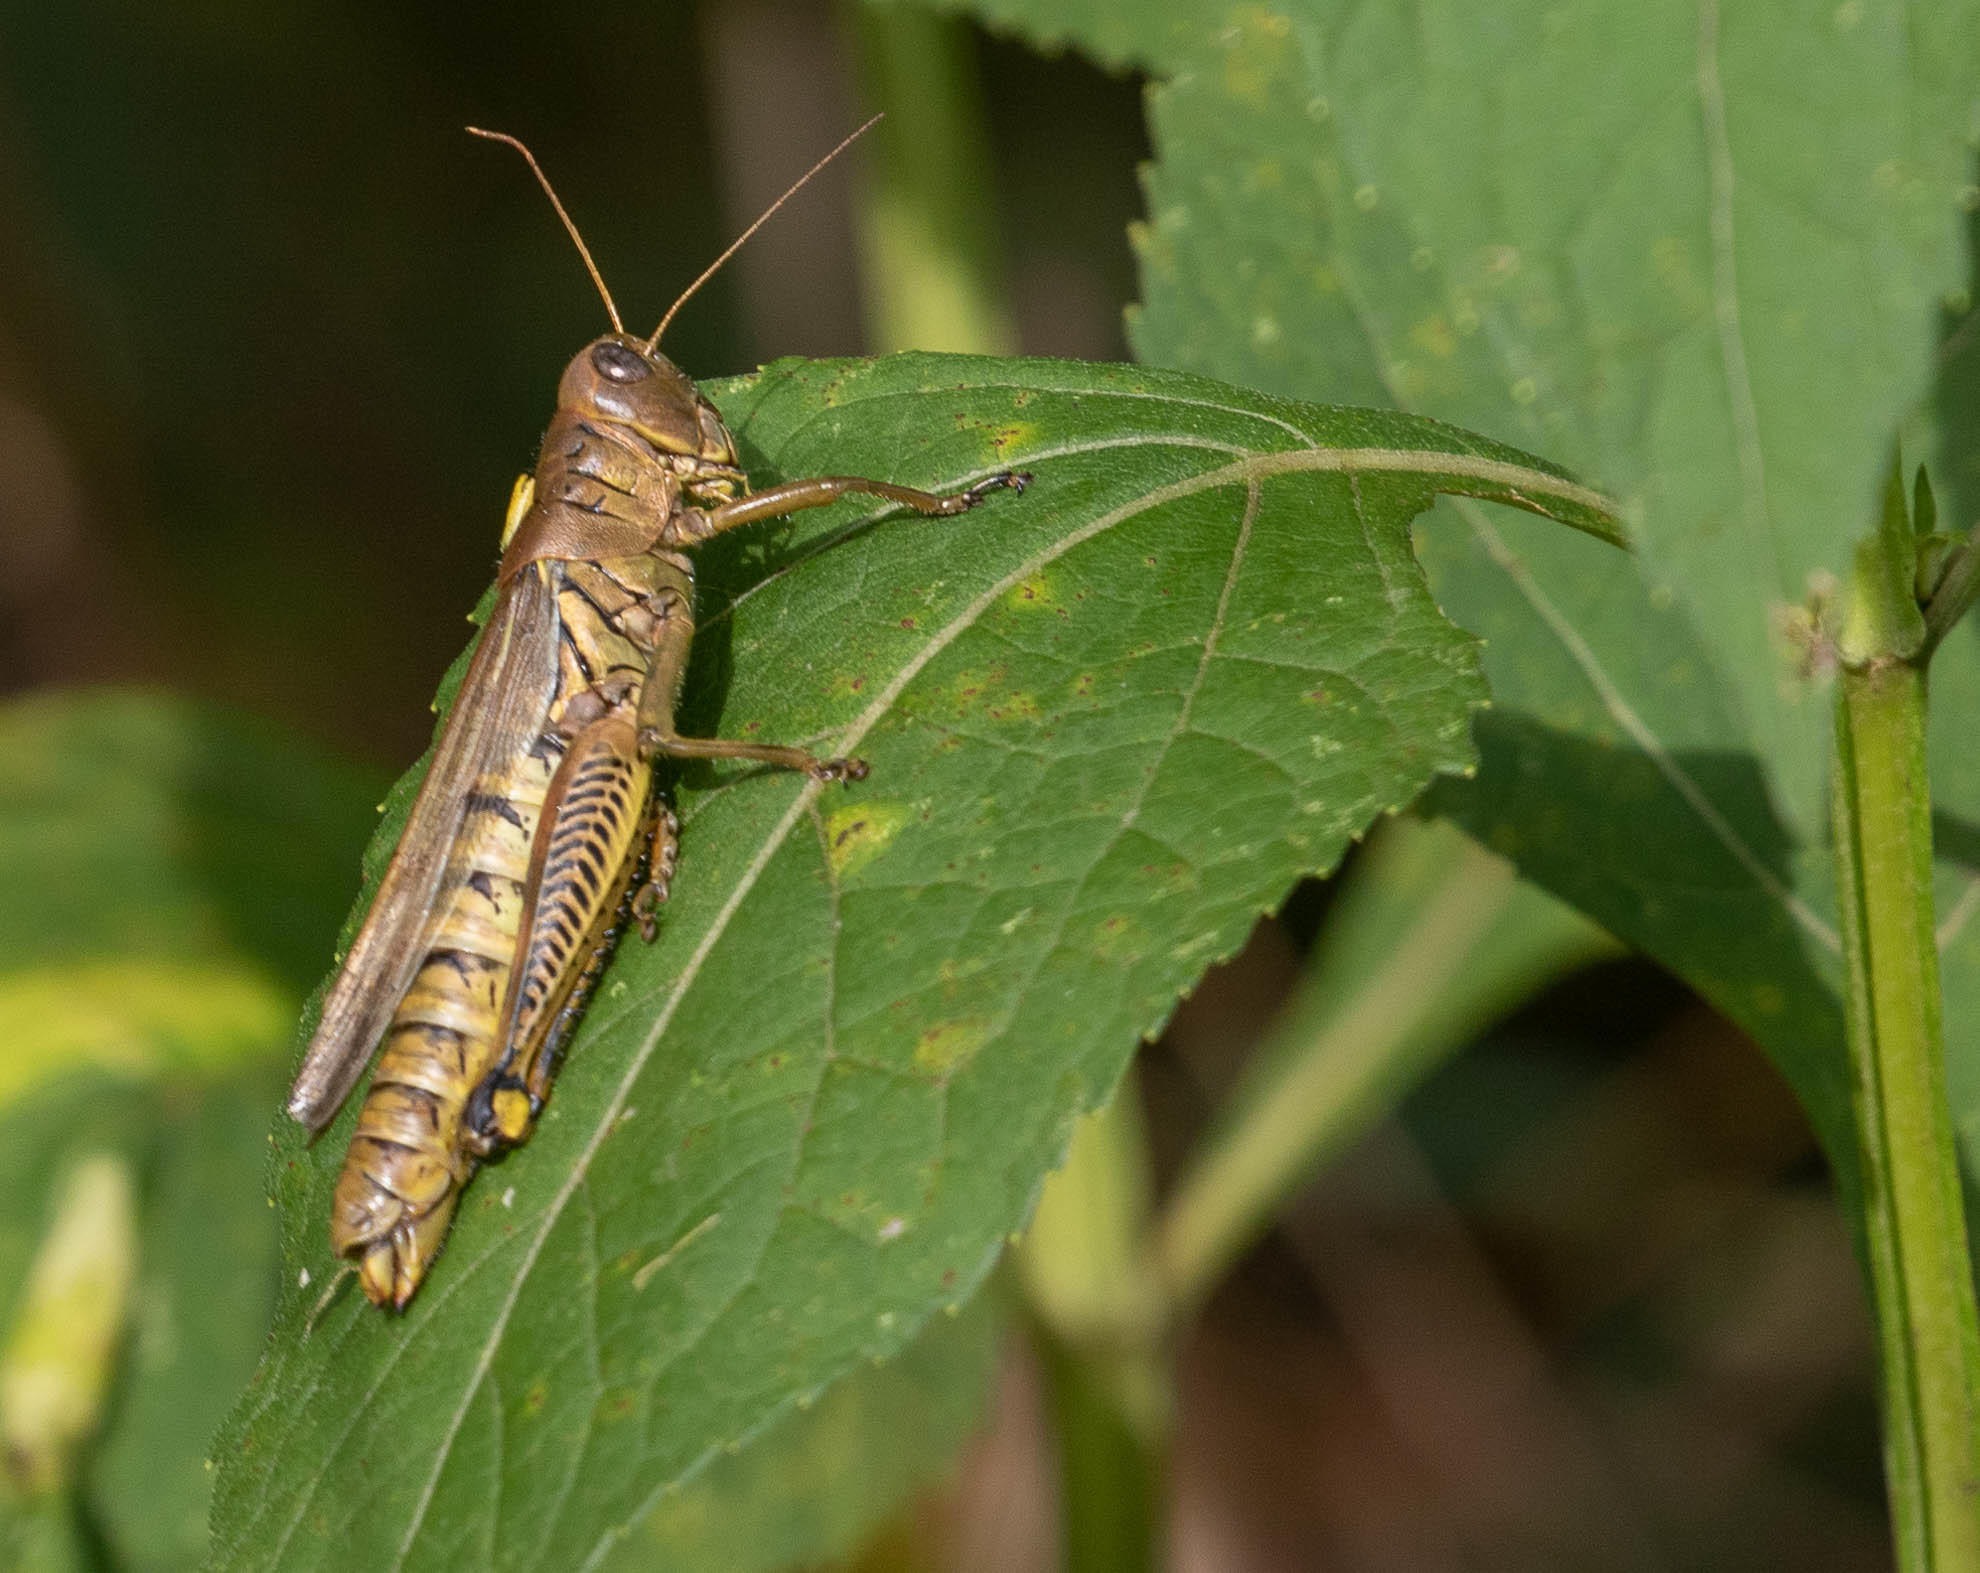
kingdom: Animalia
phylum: Arthropoda
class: Insecta
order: Orthoptera
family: Acrididae
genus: Melanoplus
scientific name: Melanoplus differentialis
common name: Differential grasshopper
